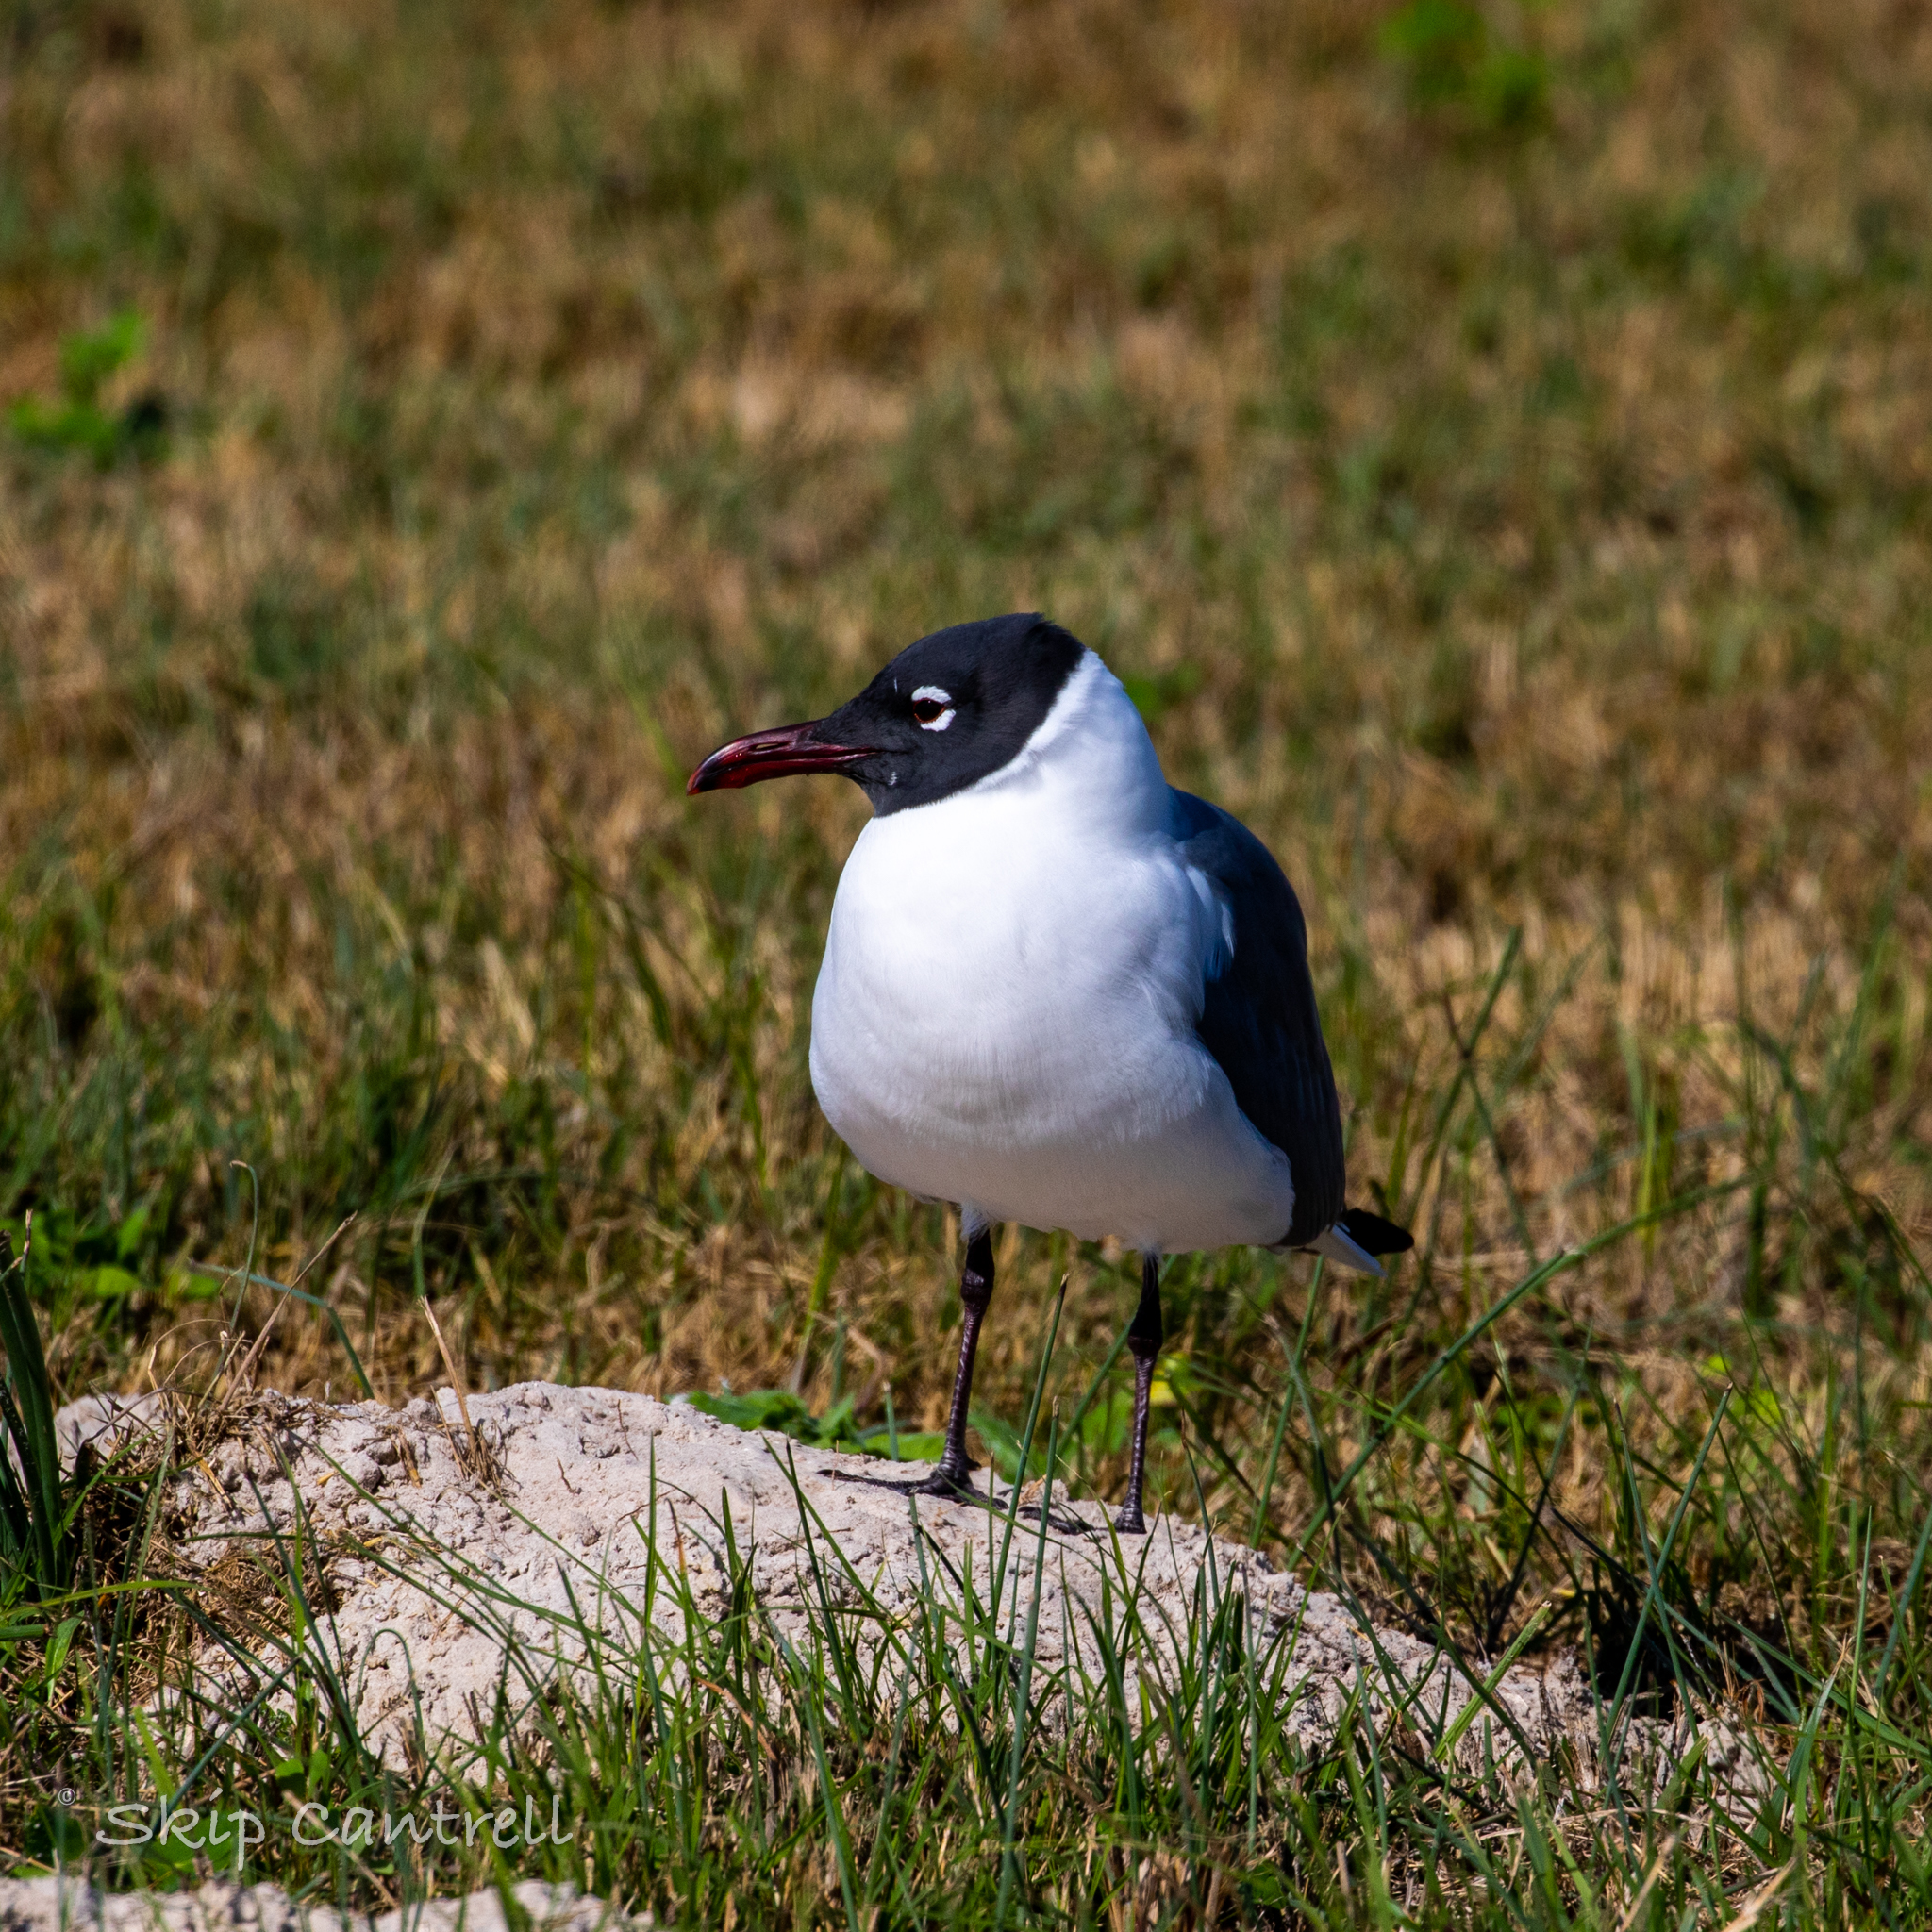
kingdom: Animalia
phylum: Chordata
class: Aves
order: Charadriiformes
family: Laridae
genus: Leucophaeus
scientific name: Leucophaeus atricilla
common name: Laughing gull
